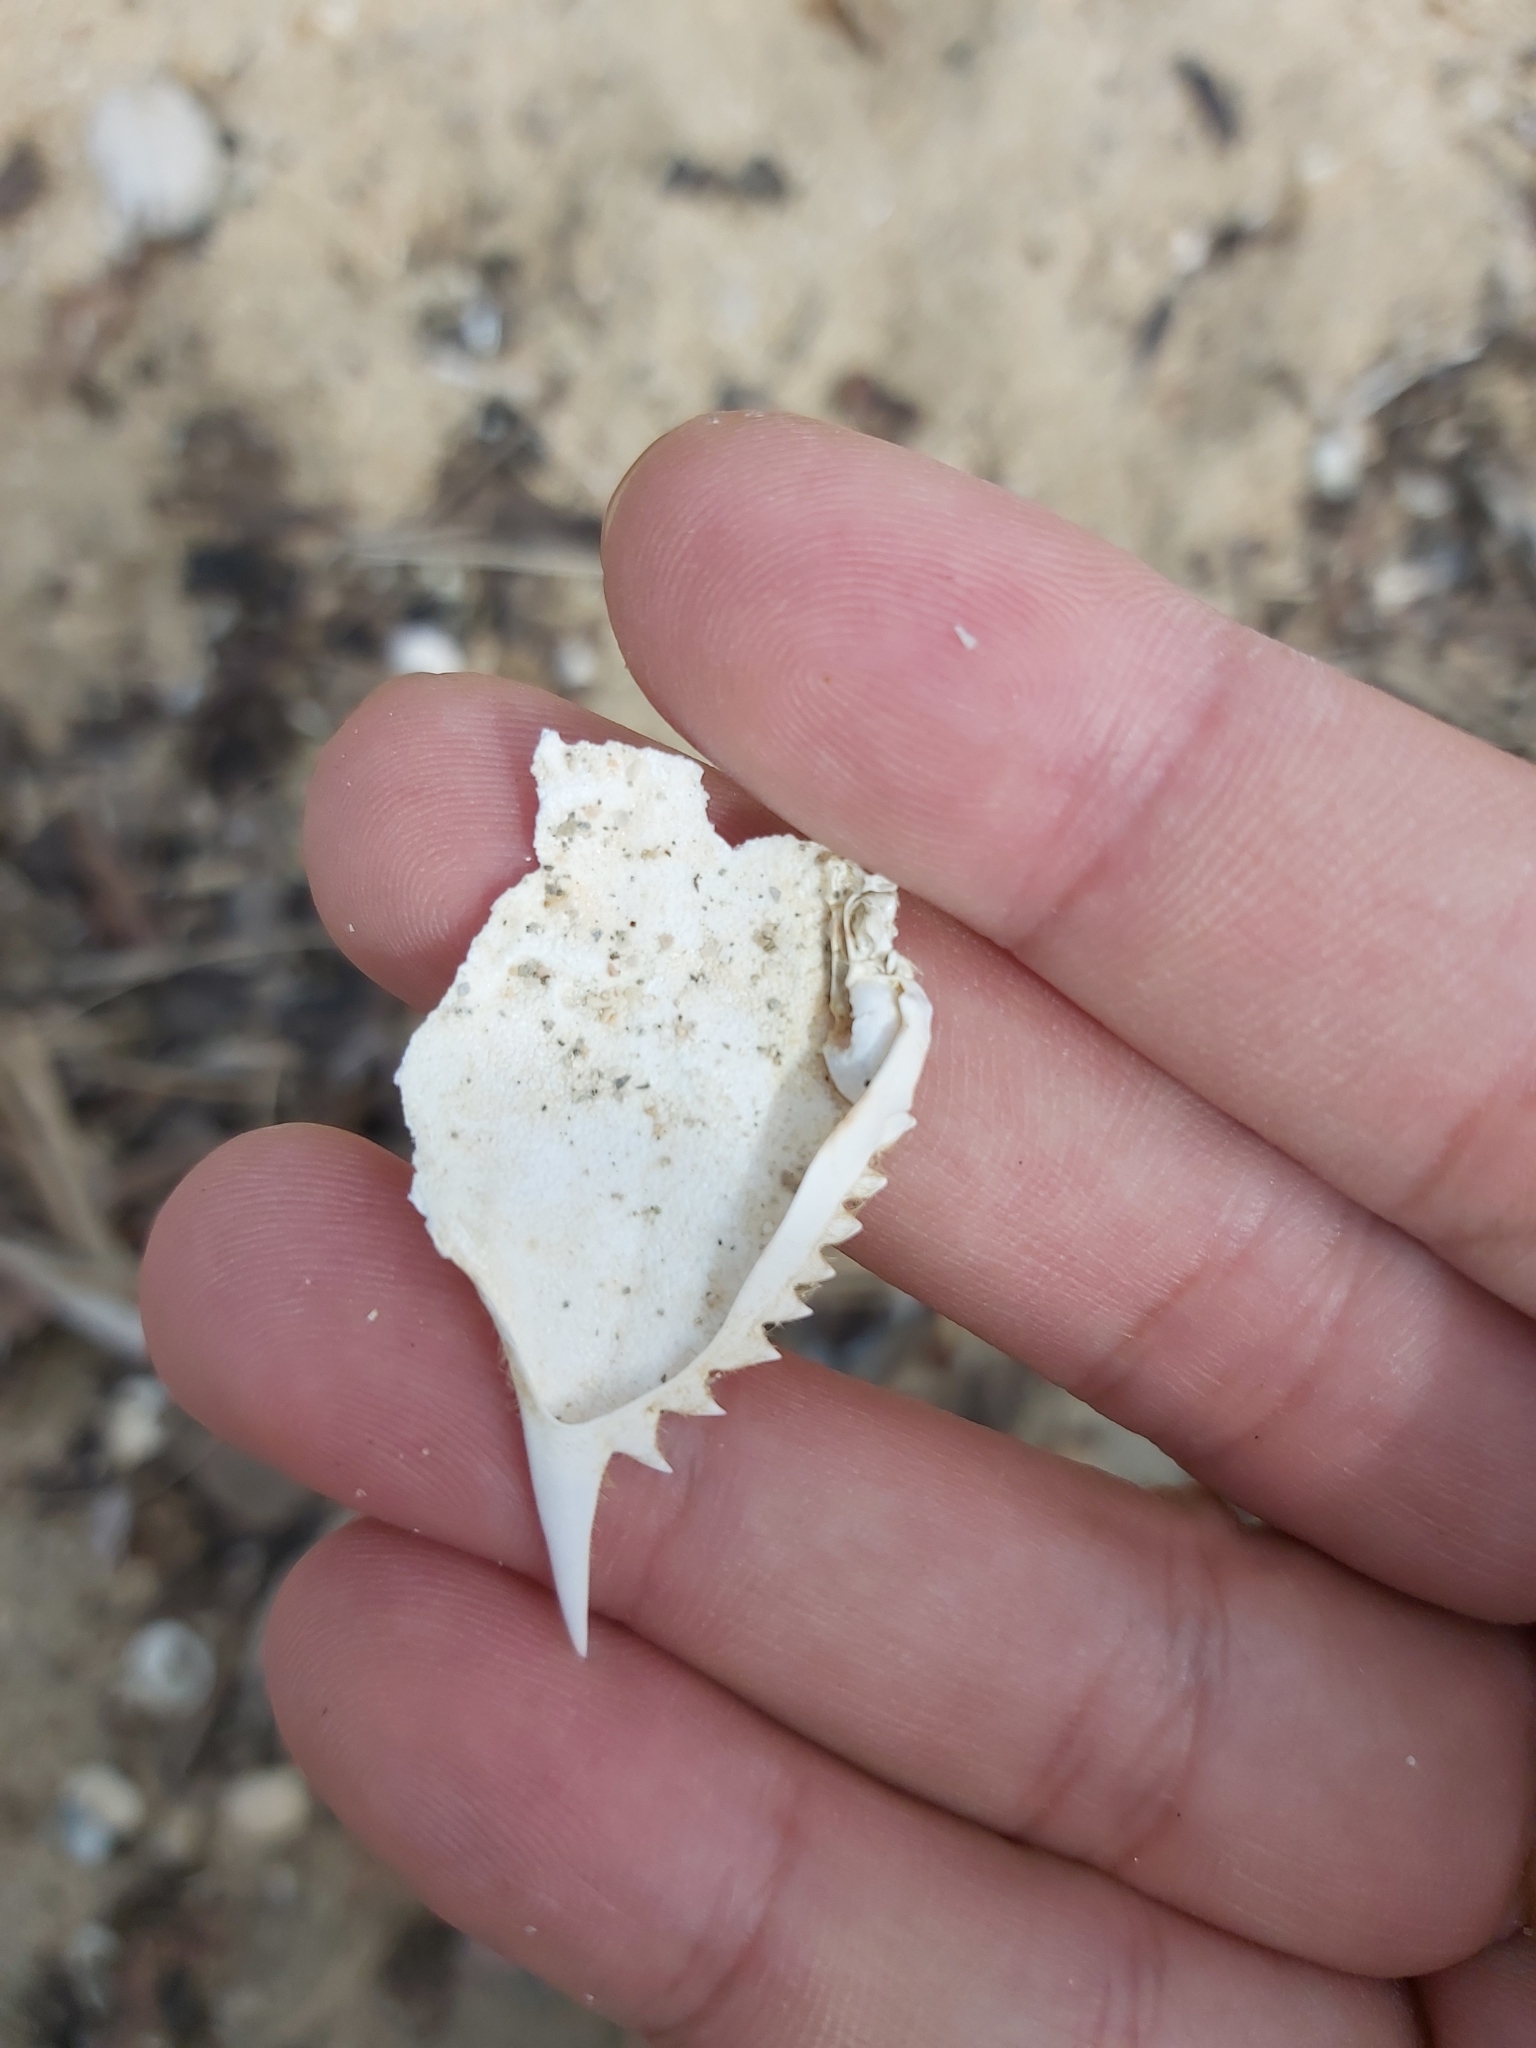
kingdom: Animalia
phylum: Arthropoda
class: Malacostraca
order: Decapoda
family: Portunidae
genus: Portunus
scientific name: Portunus armatus
